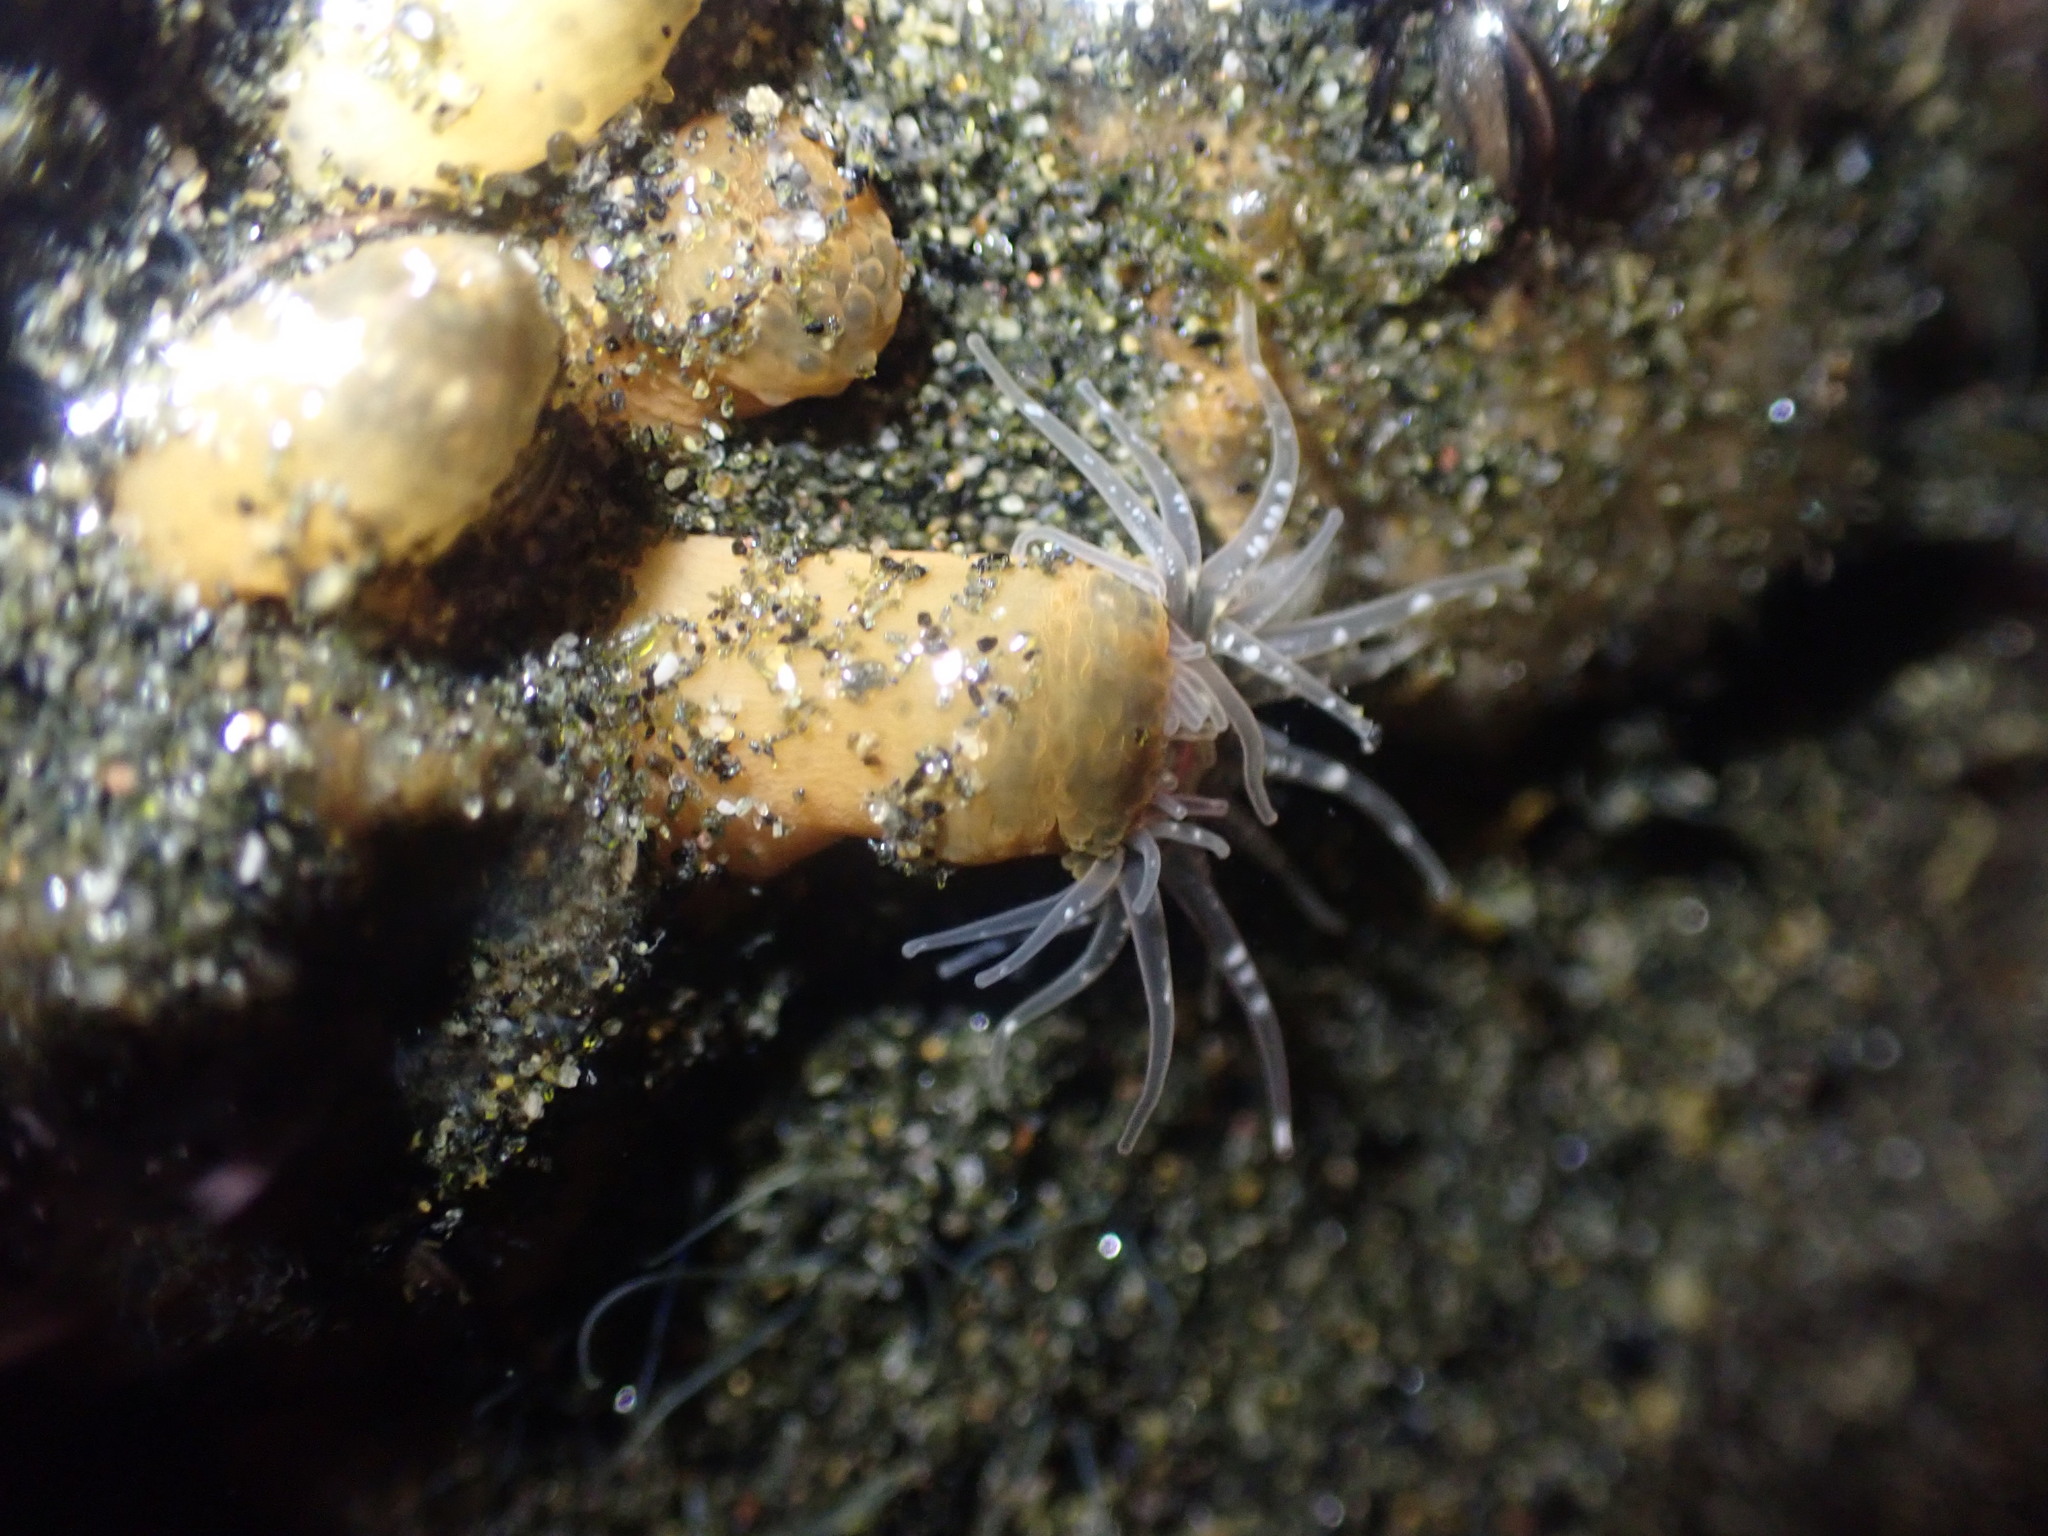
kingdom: Animalia
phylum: Cnidaria
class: Anthozoa
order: Actiniaria
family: Actiniidae
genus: Anthopleura
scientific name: Anthopleura minima
